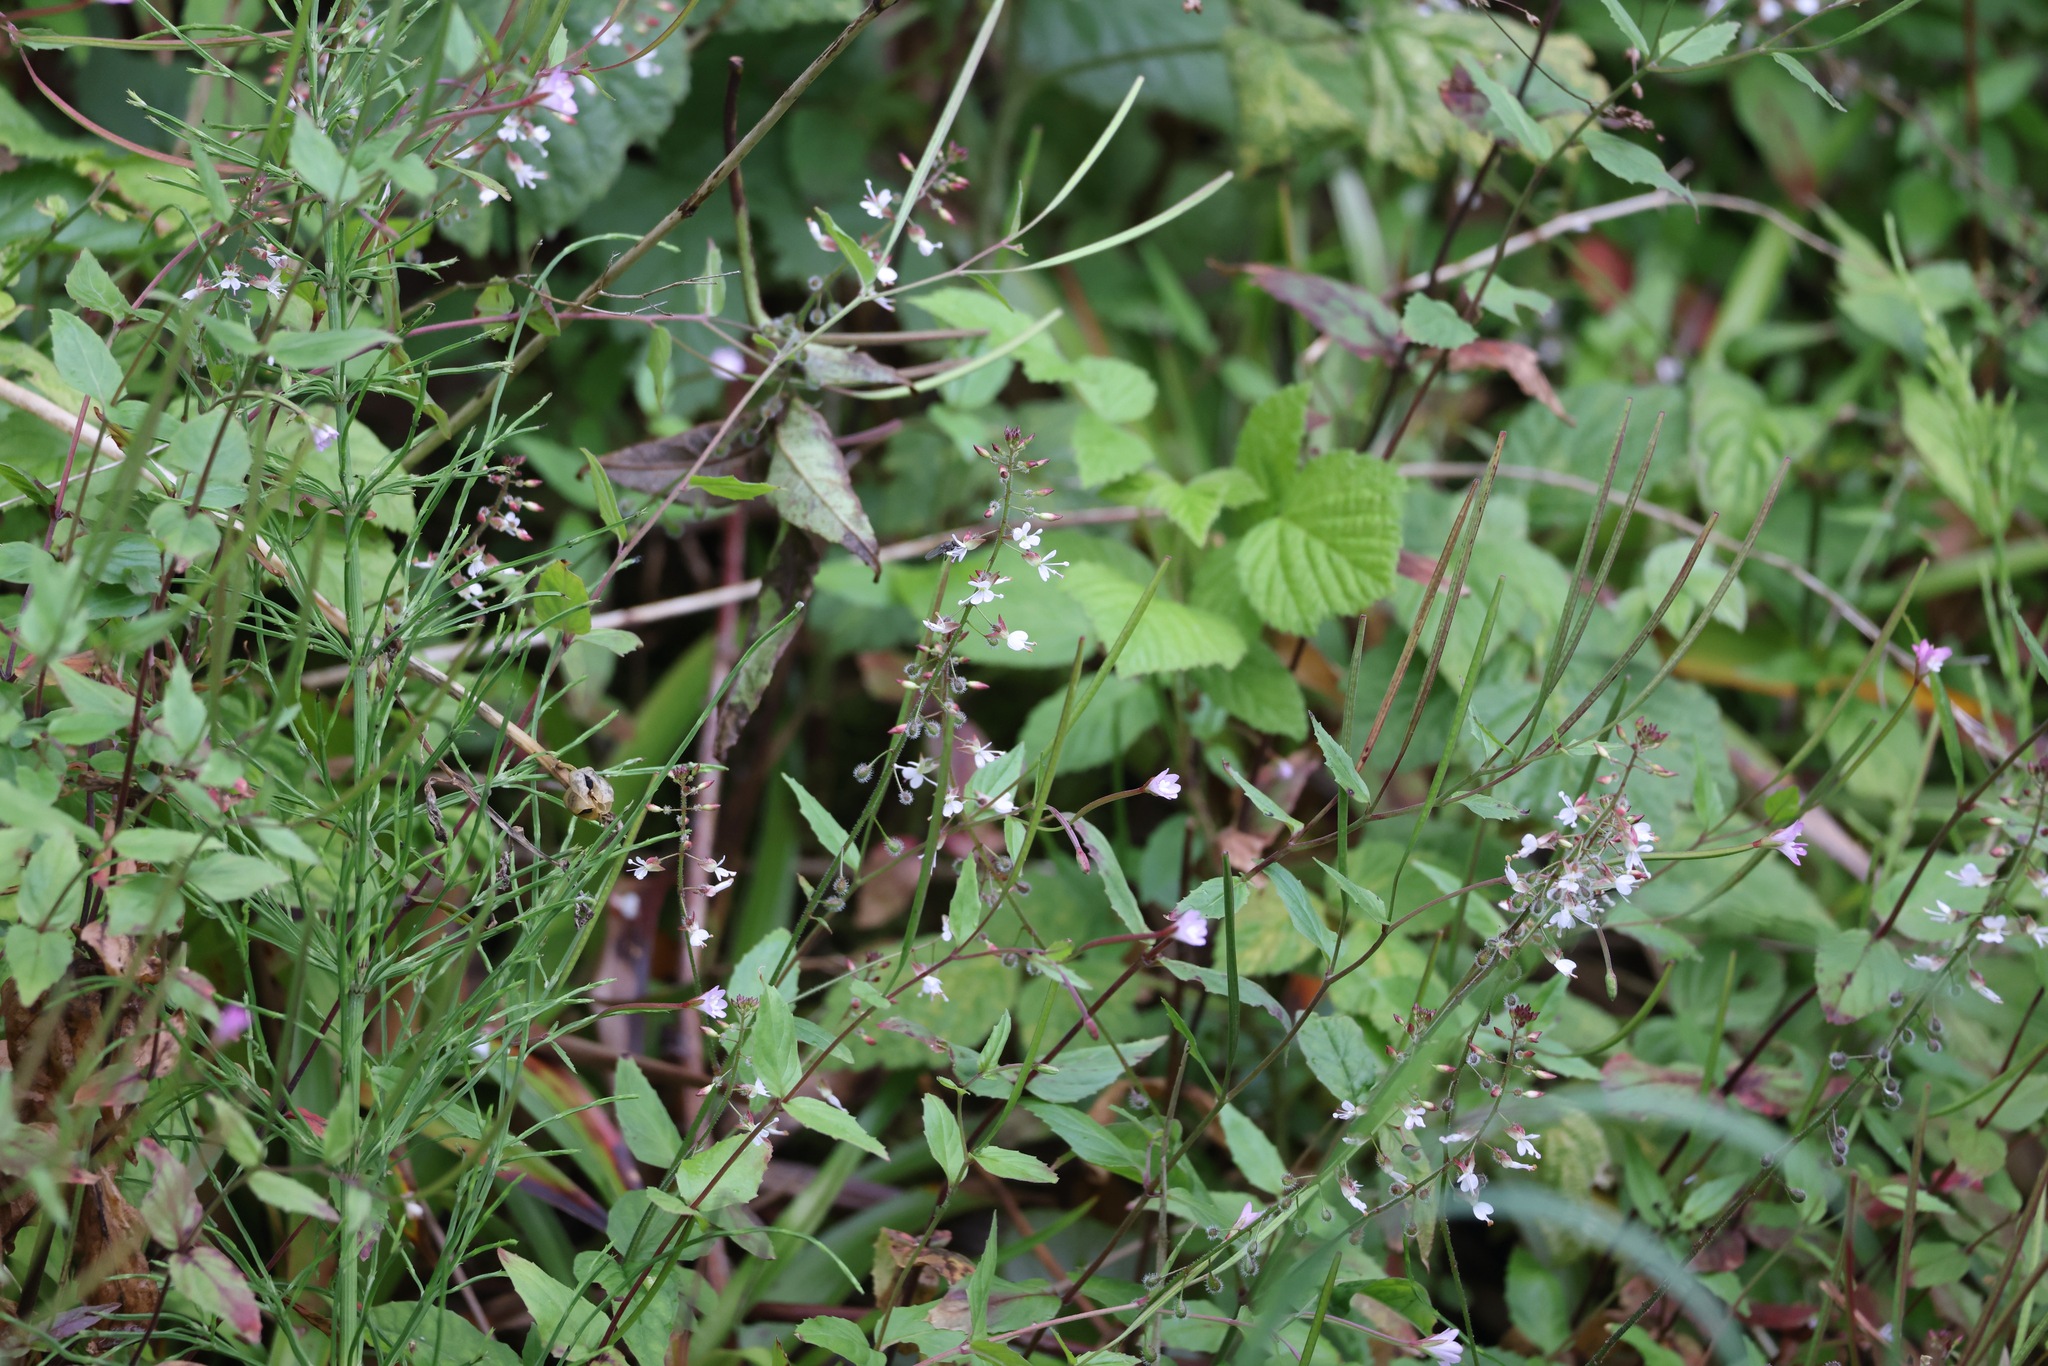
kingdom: Plantae
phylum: Tracheophyta
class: Magnoliopsida
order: Myrtales
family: Onagraceae
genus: Circaea
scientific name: Circaea lutetiana
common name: Enchanter's-nightshade
